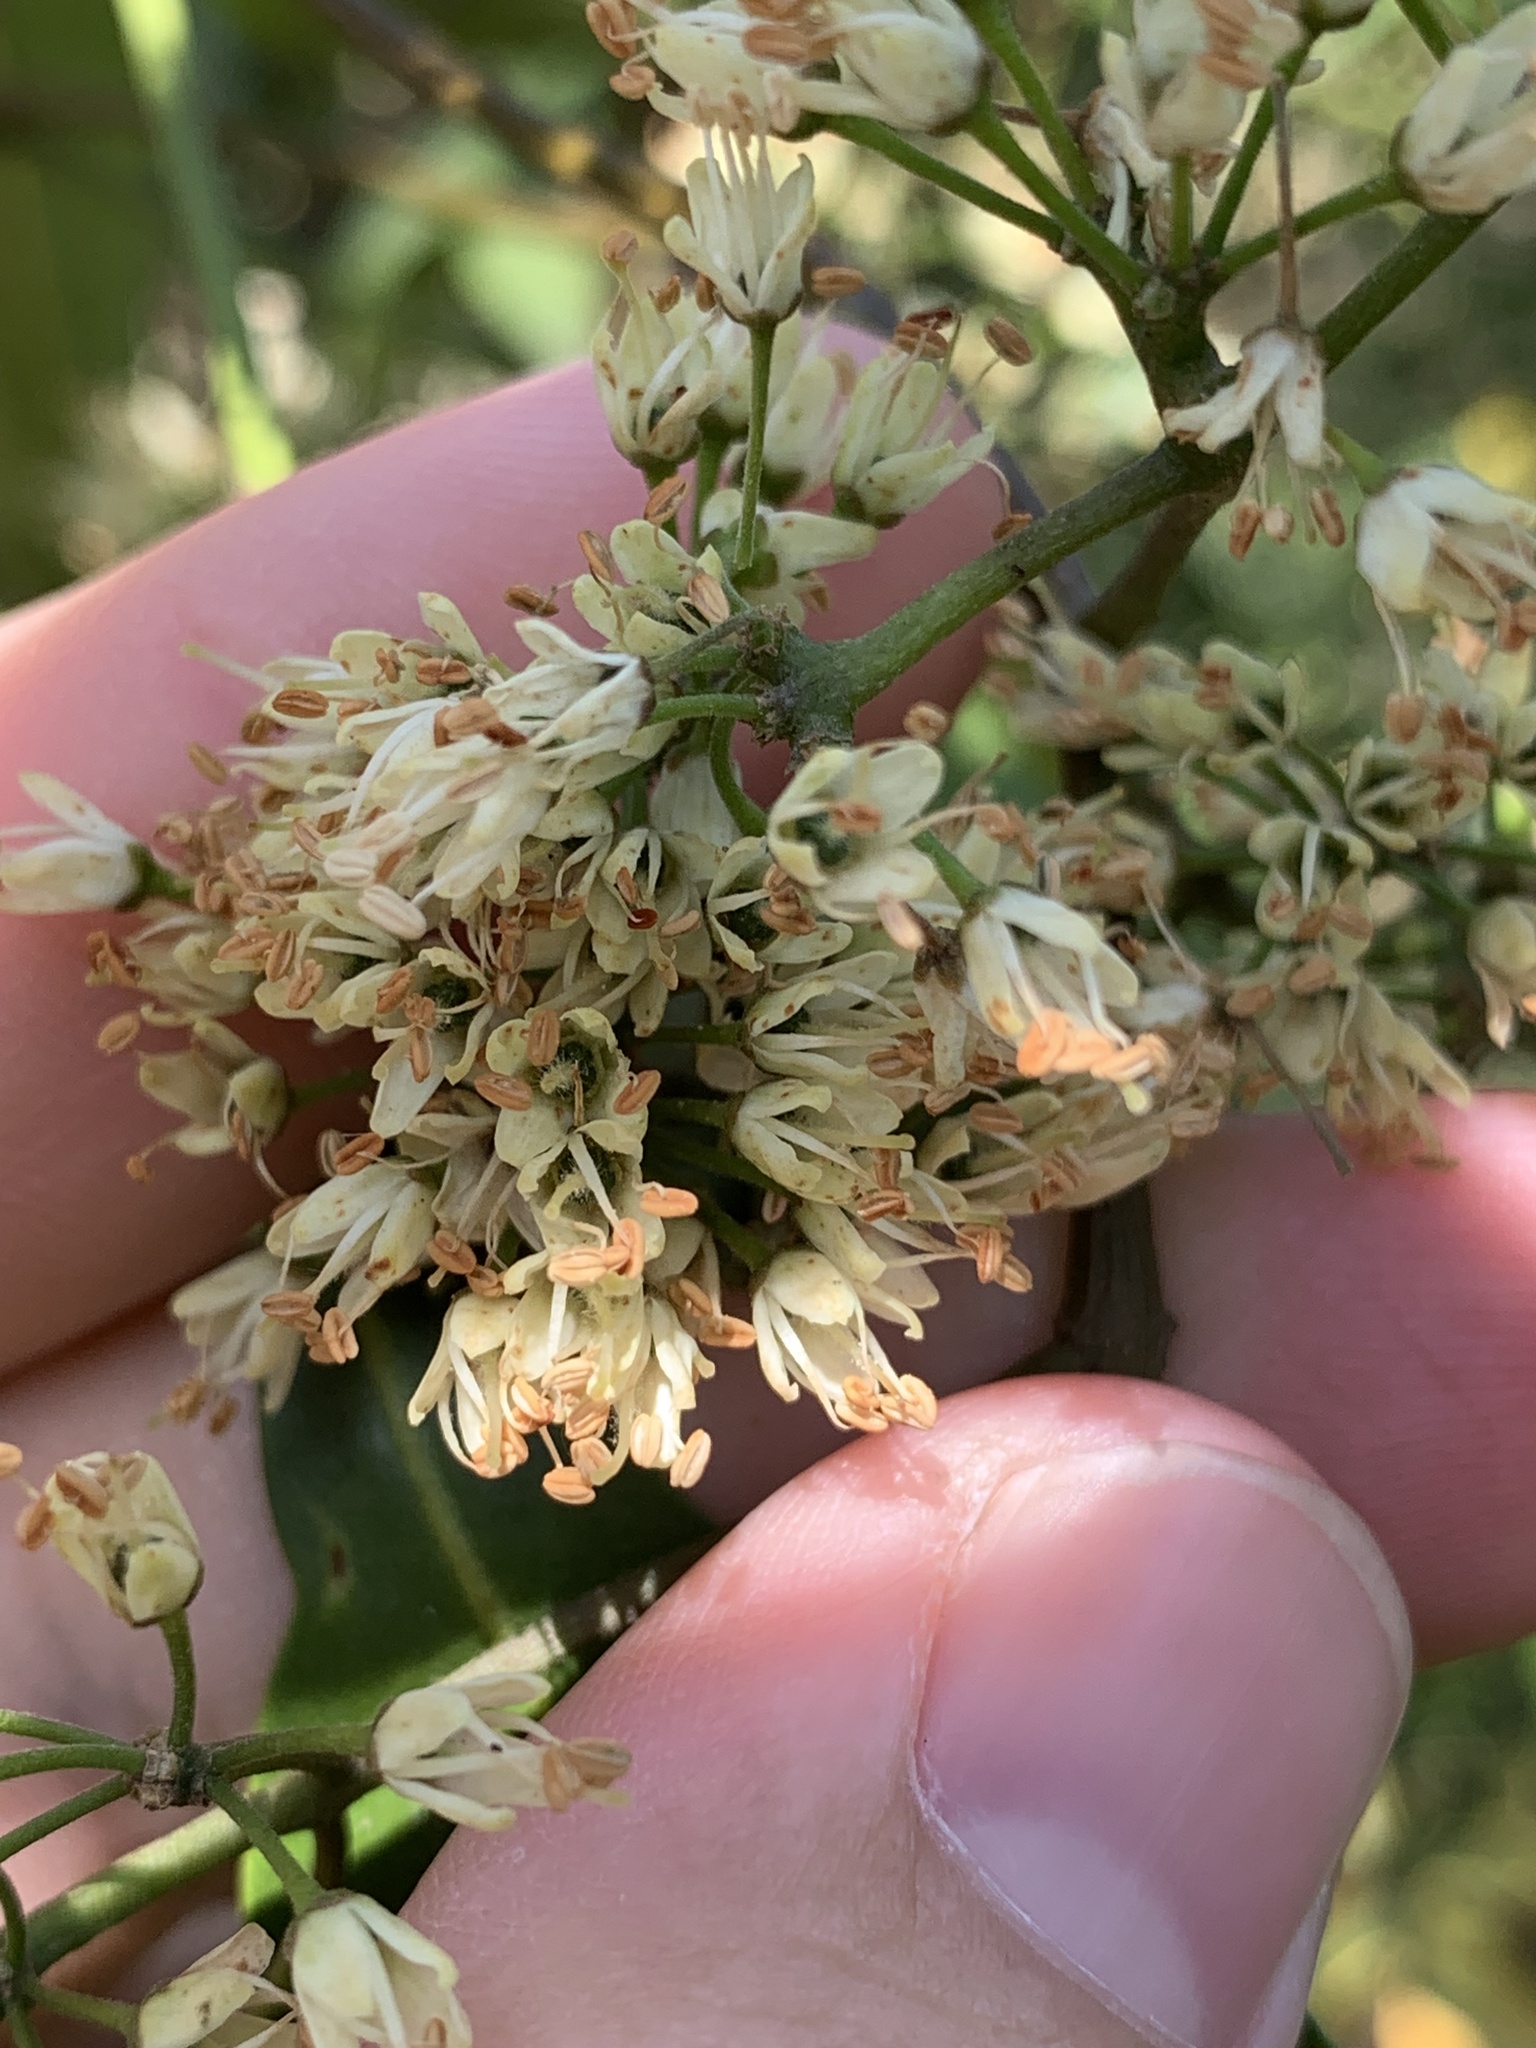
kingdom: Plantae
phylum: Tracheophyta
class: Magnoliopsida
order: Sapindales
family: Rutaceae
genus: Melicope
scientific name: Melicope micrococca
